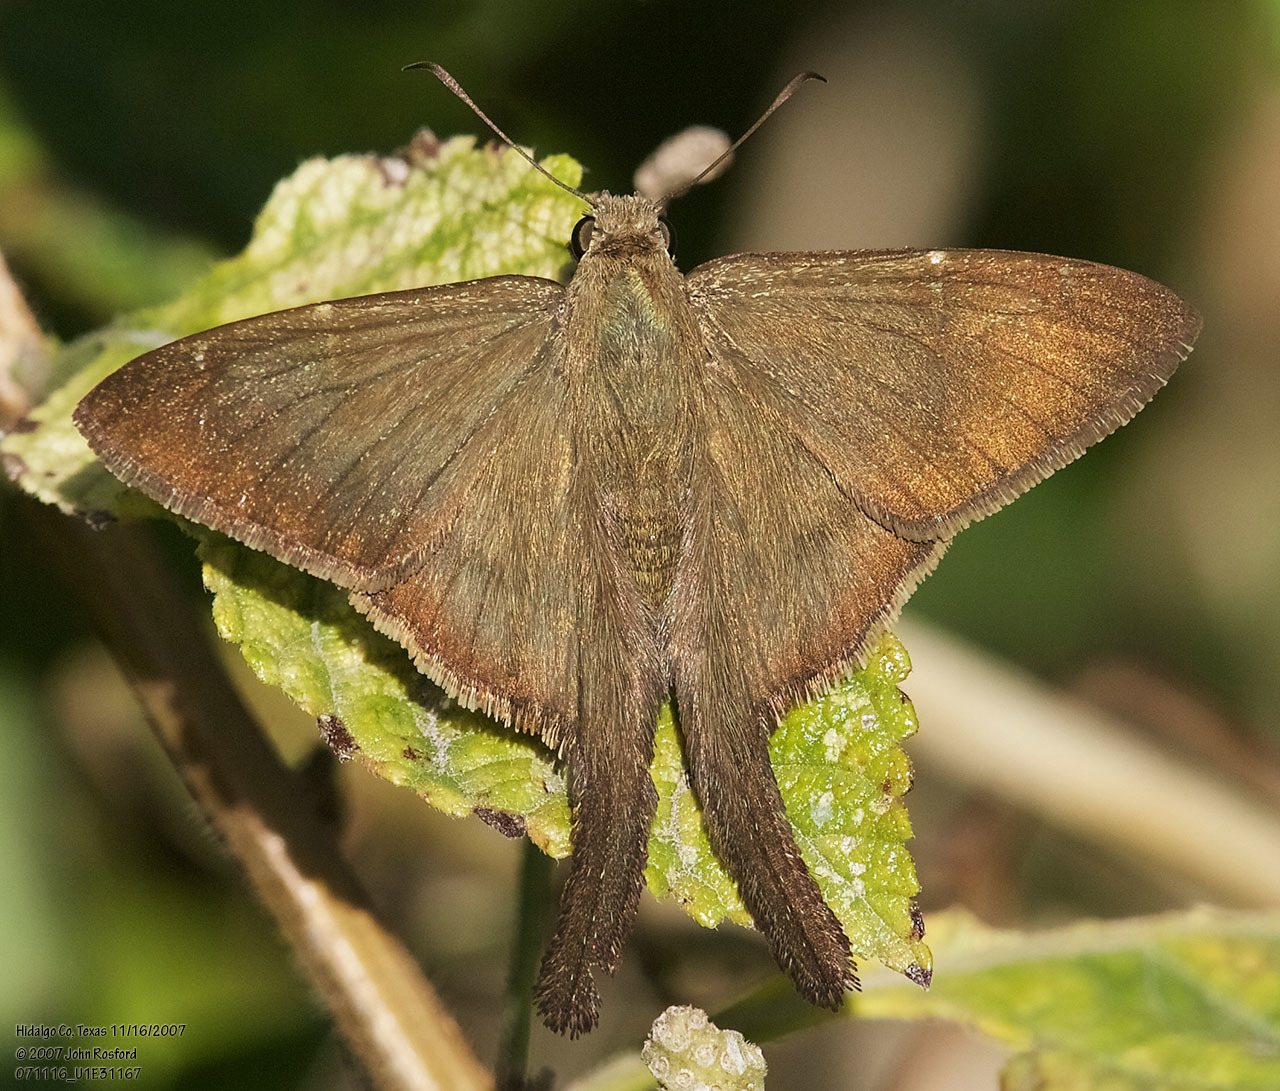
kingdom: Animalia
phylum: Arthropoda
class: Insecta
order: Lepidoptera
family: Hesperiidae
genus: Urbanus
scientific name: Urbanus procne
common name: Brown longtail
